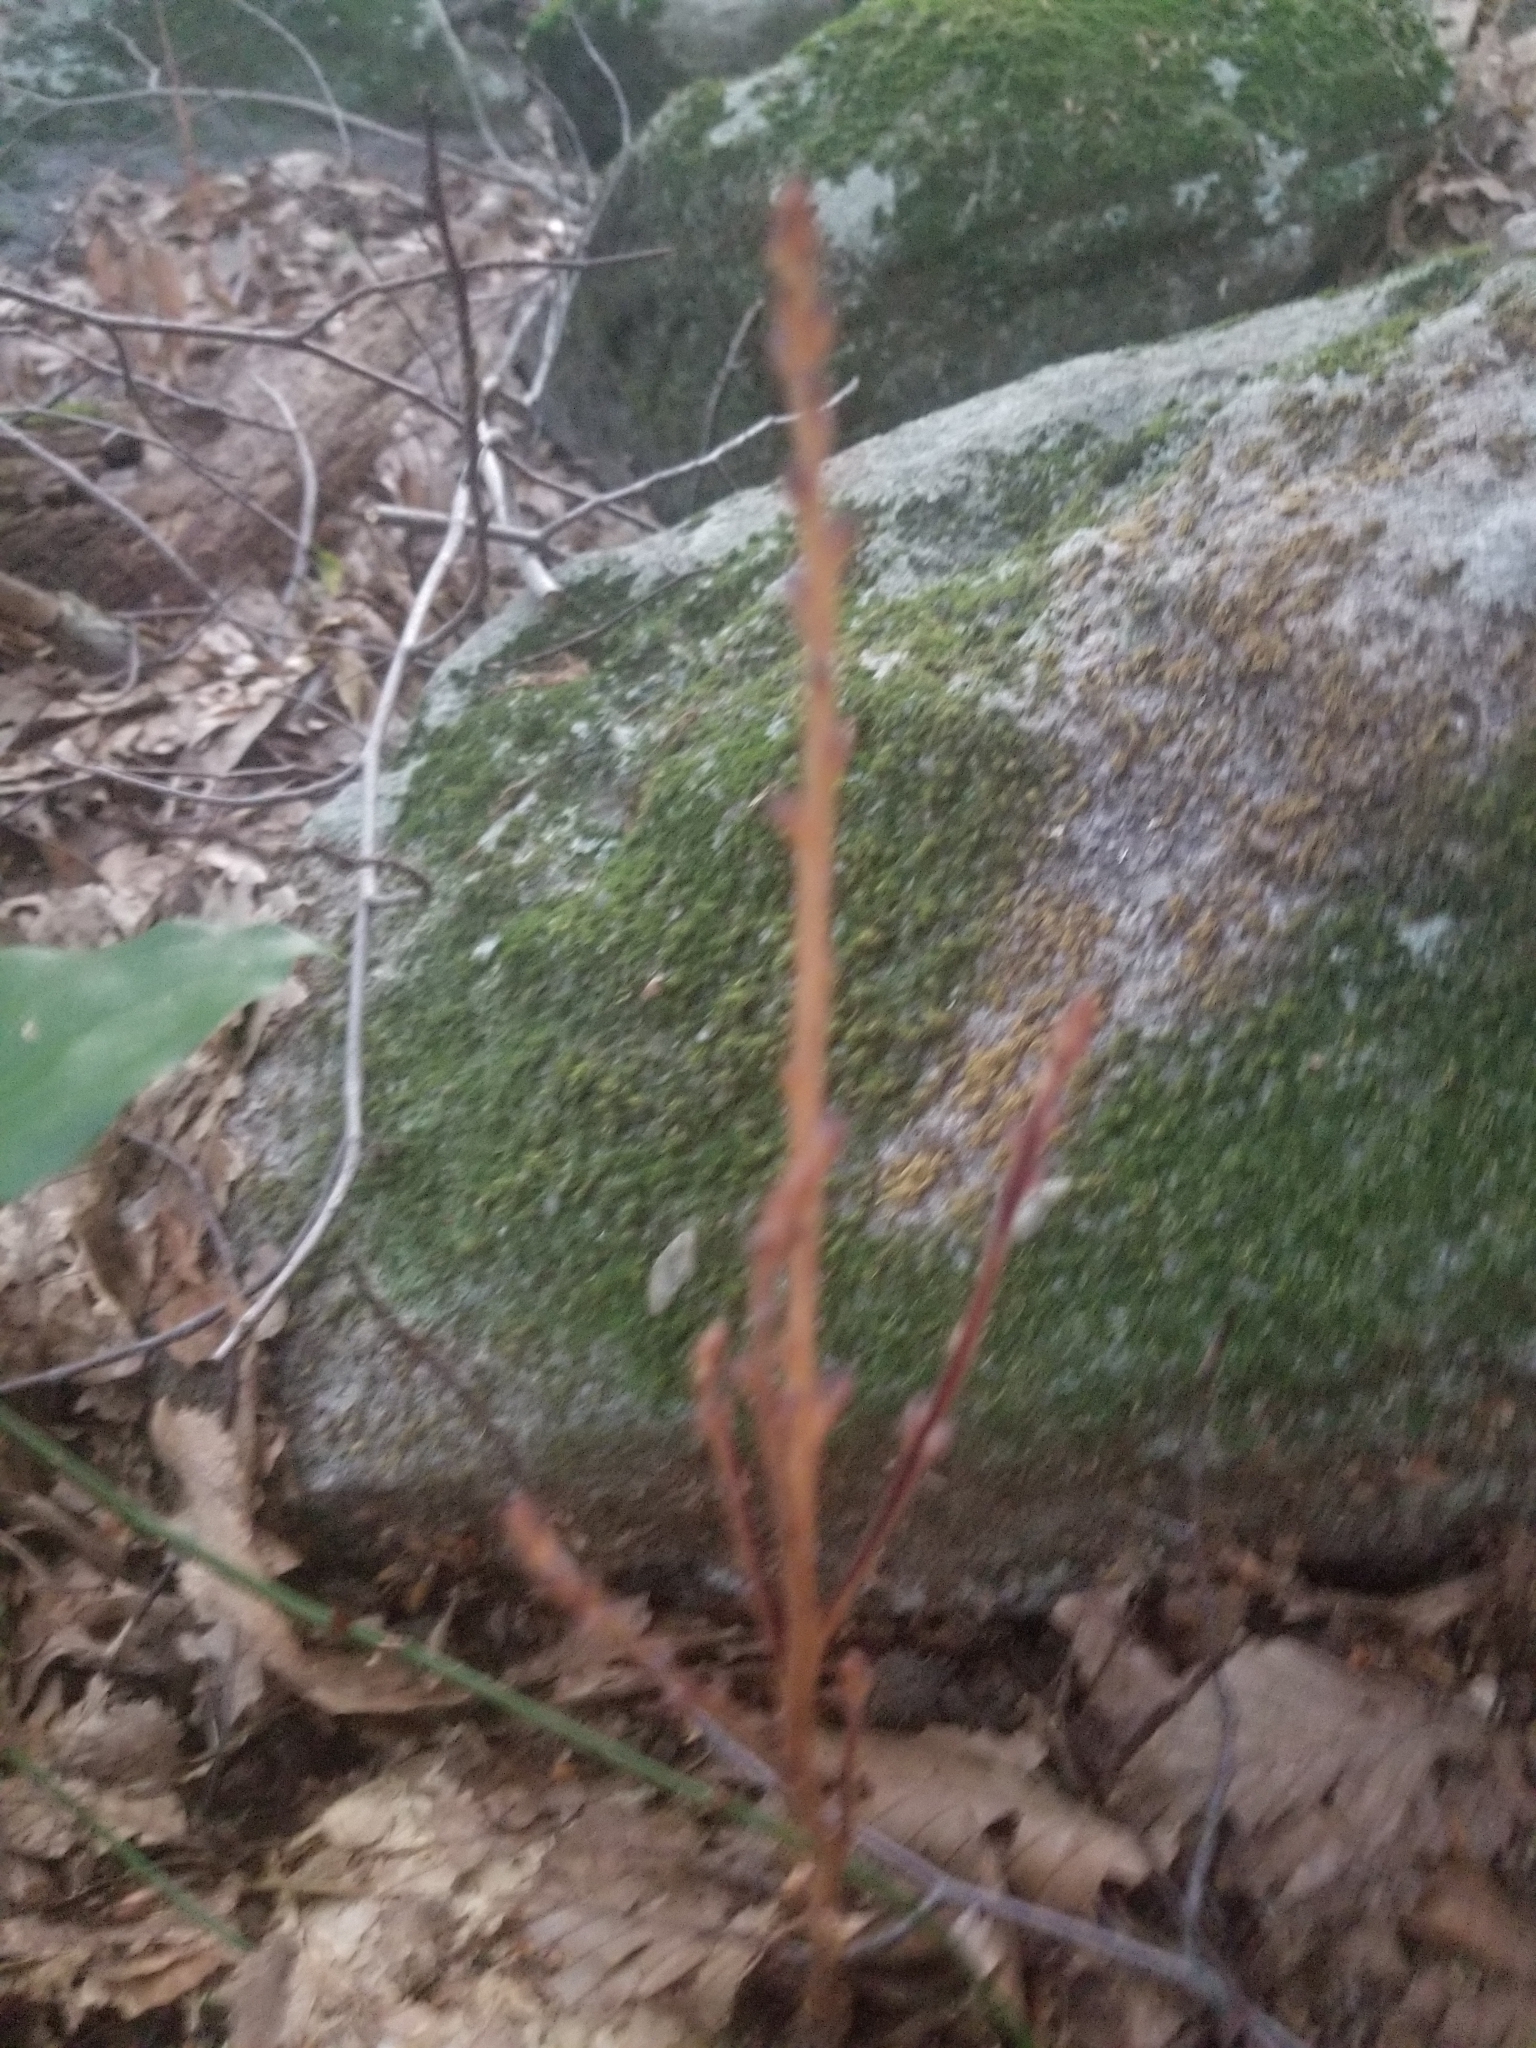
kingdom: Plantae
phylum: Tracheophyta
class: Magnoliopsida
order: Lamiales
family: Orobanchaceae
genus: Epifagus
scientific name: Epifagus virginiana
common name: Beechdrops
